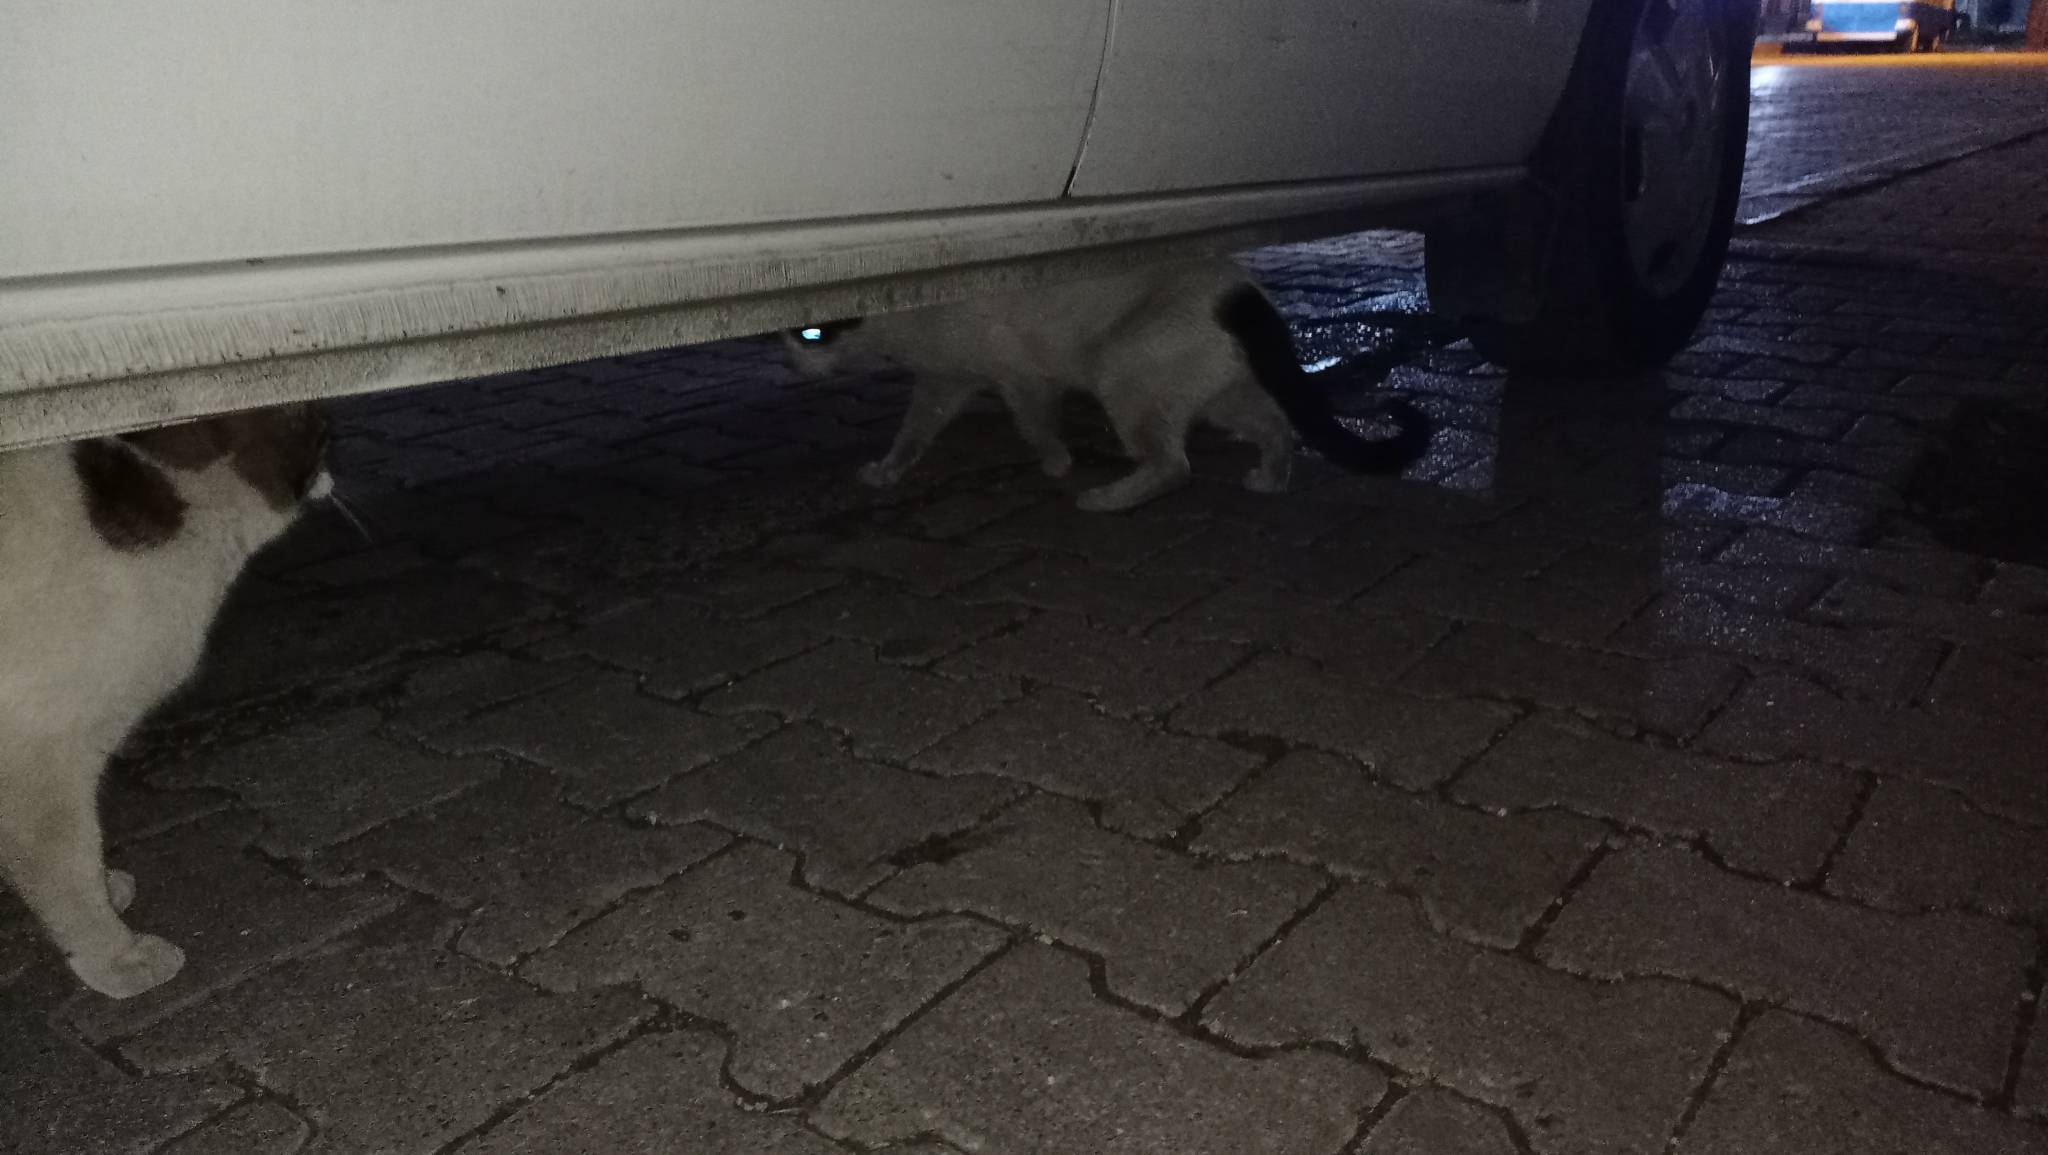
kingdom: Animalia
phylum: Chordata
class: Mammalia
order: Carnivora
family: Felidae
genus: Felis
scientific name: Felis catus
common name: Domestic cat
